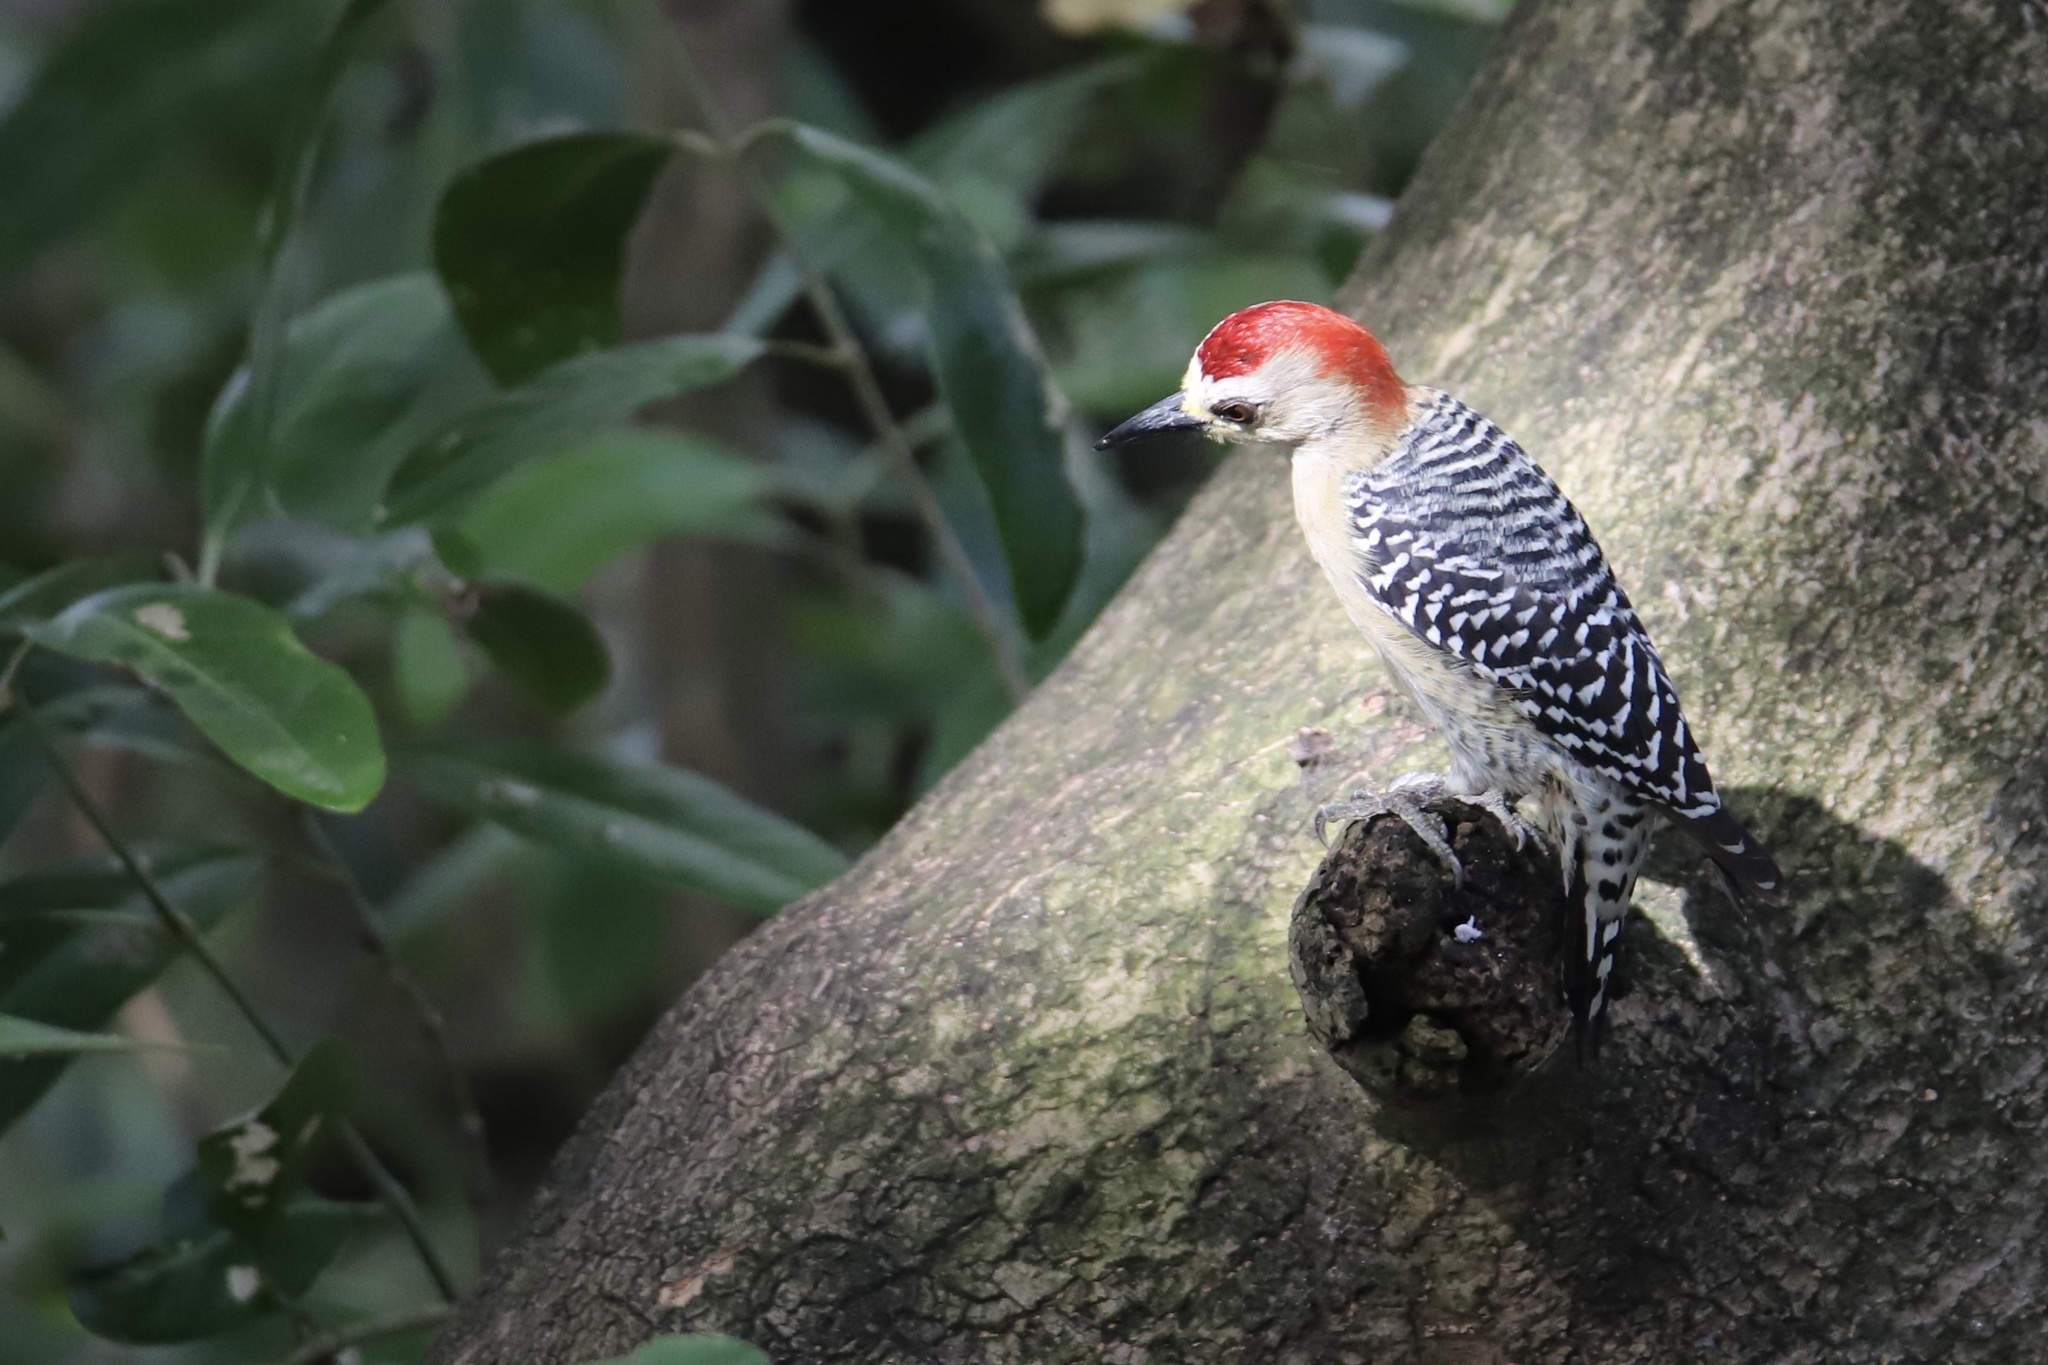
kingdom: Animalia
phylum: Chordata
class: Aves
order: Piciformes
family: Picidae
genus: Melanerpes
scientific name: Melanerpes rubricapillus
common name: Red-crowned woodpecker
